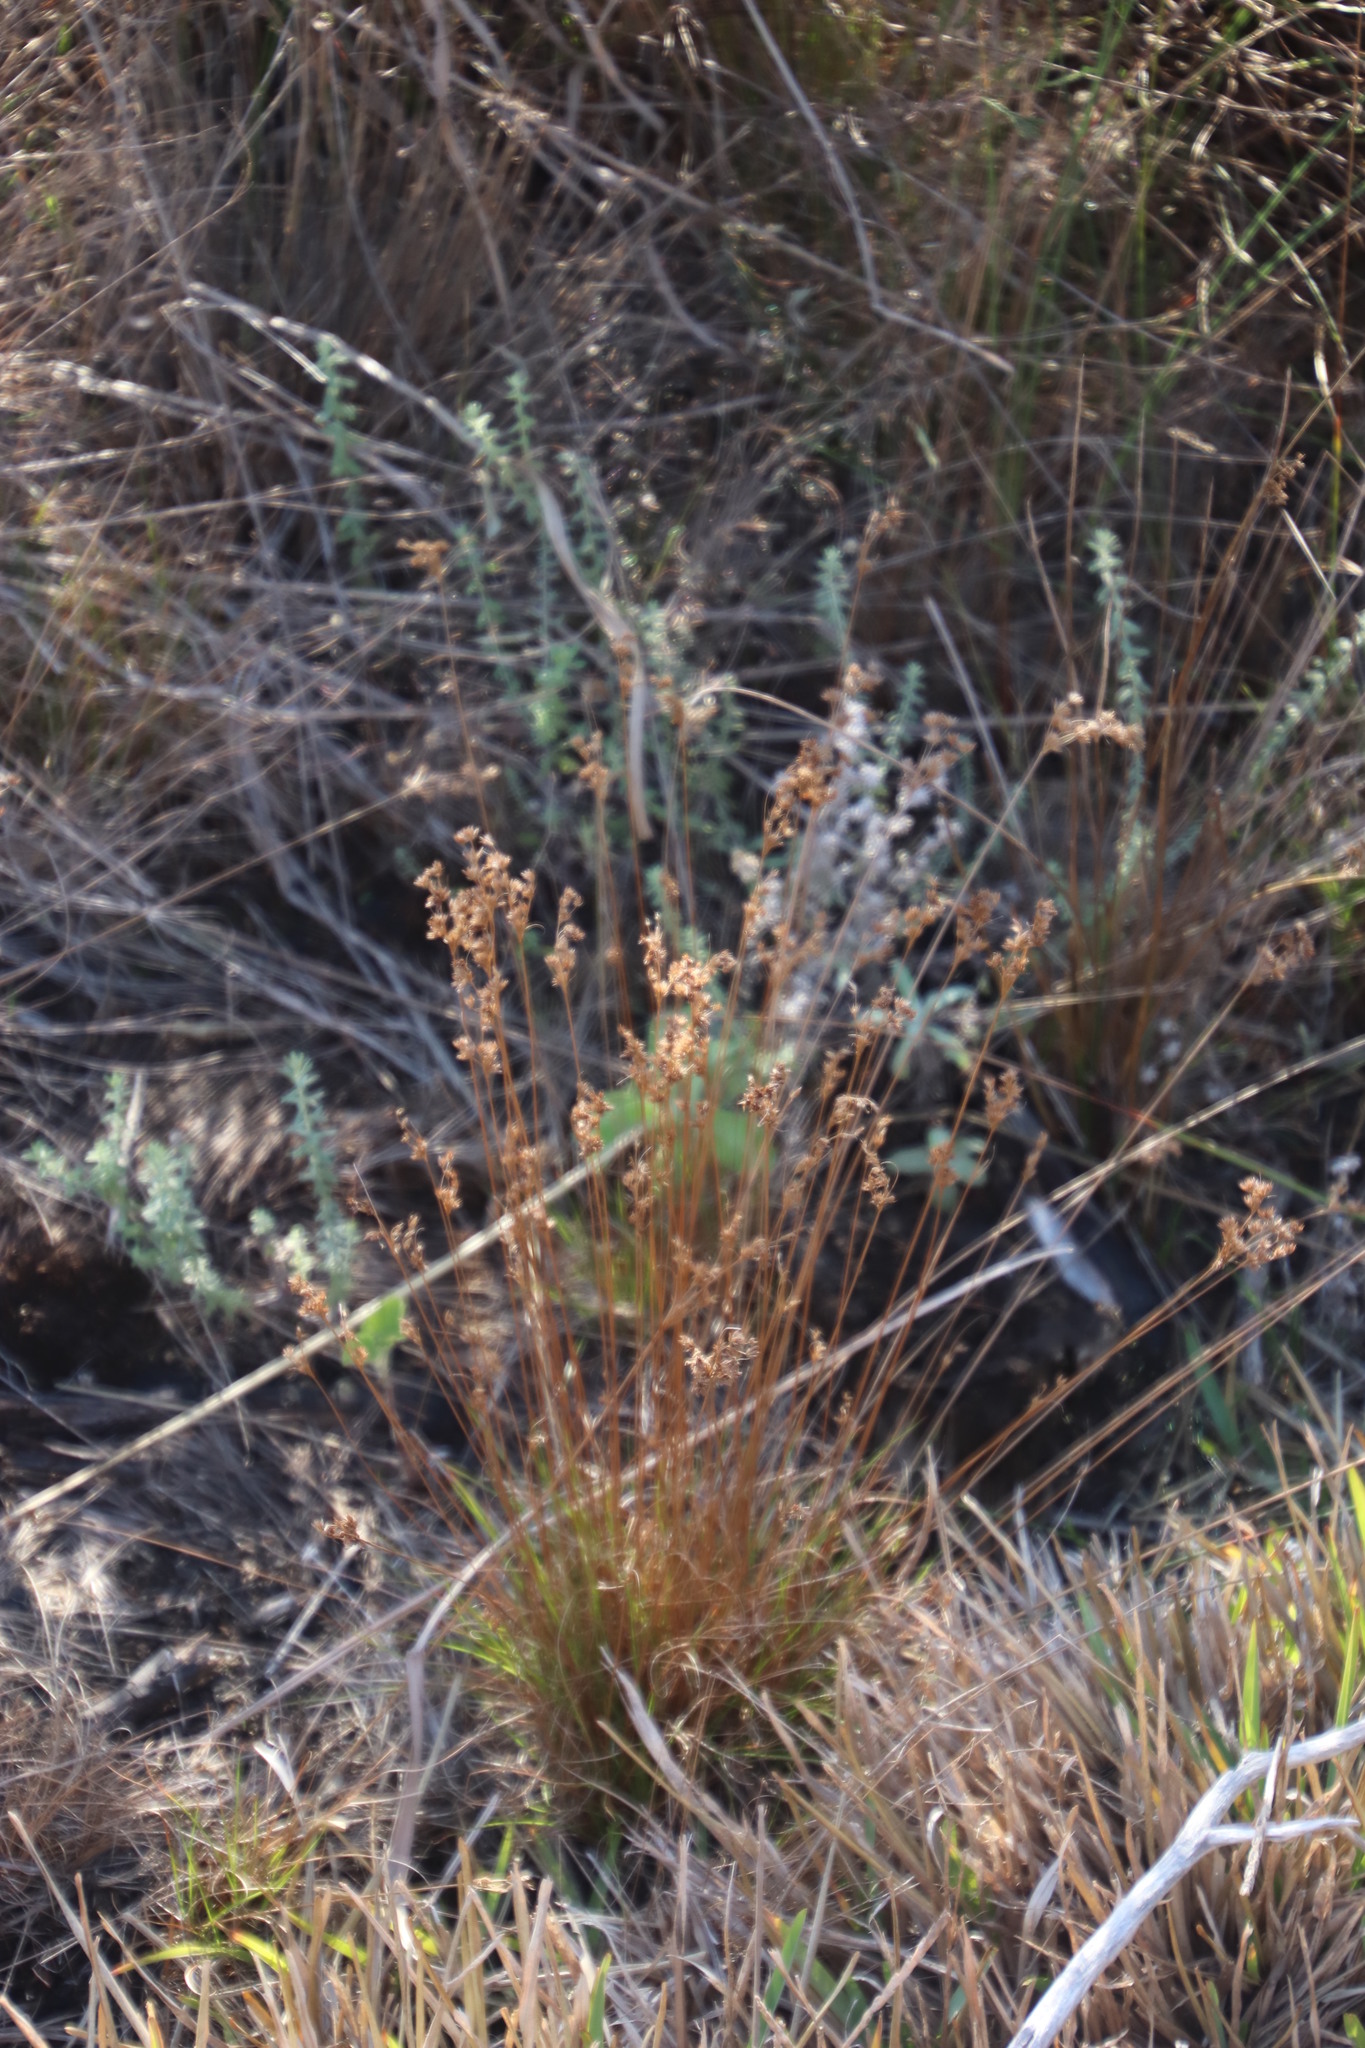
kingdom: Plantae
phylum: Tracheophyta
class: Liliopsida
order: Poales
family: Cyperaceae
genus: Ficinia
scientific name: Ficinia bulbosa
